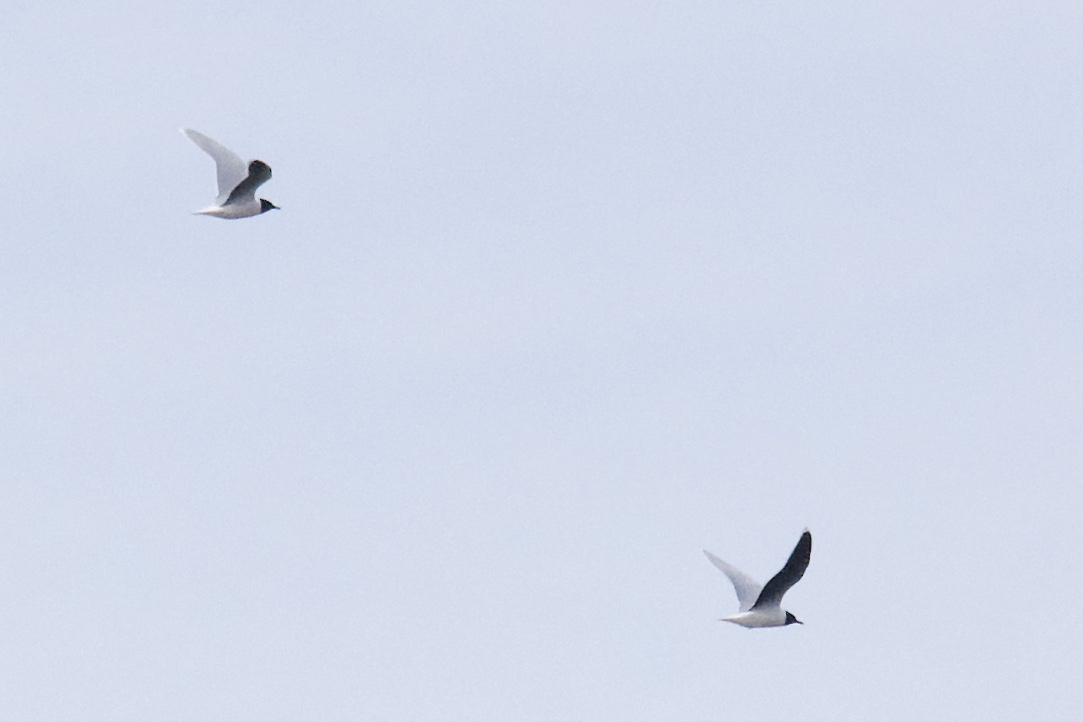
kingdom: Animalia
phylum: Chordata
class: Aves
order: Charadriiformes
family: Laridae
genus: Hydrocoloeus
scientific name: Hydrocoloeus minutus
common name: Little gull
